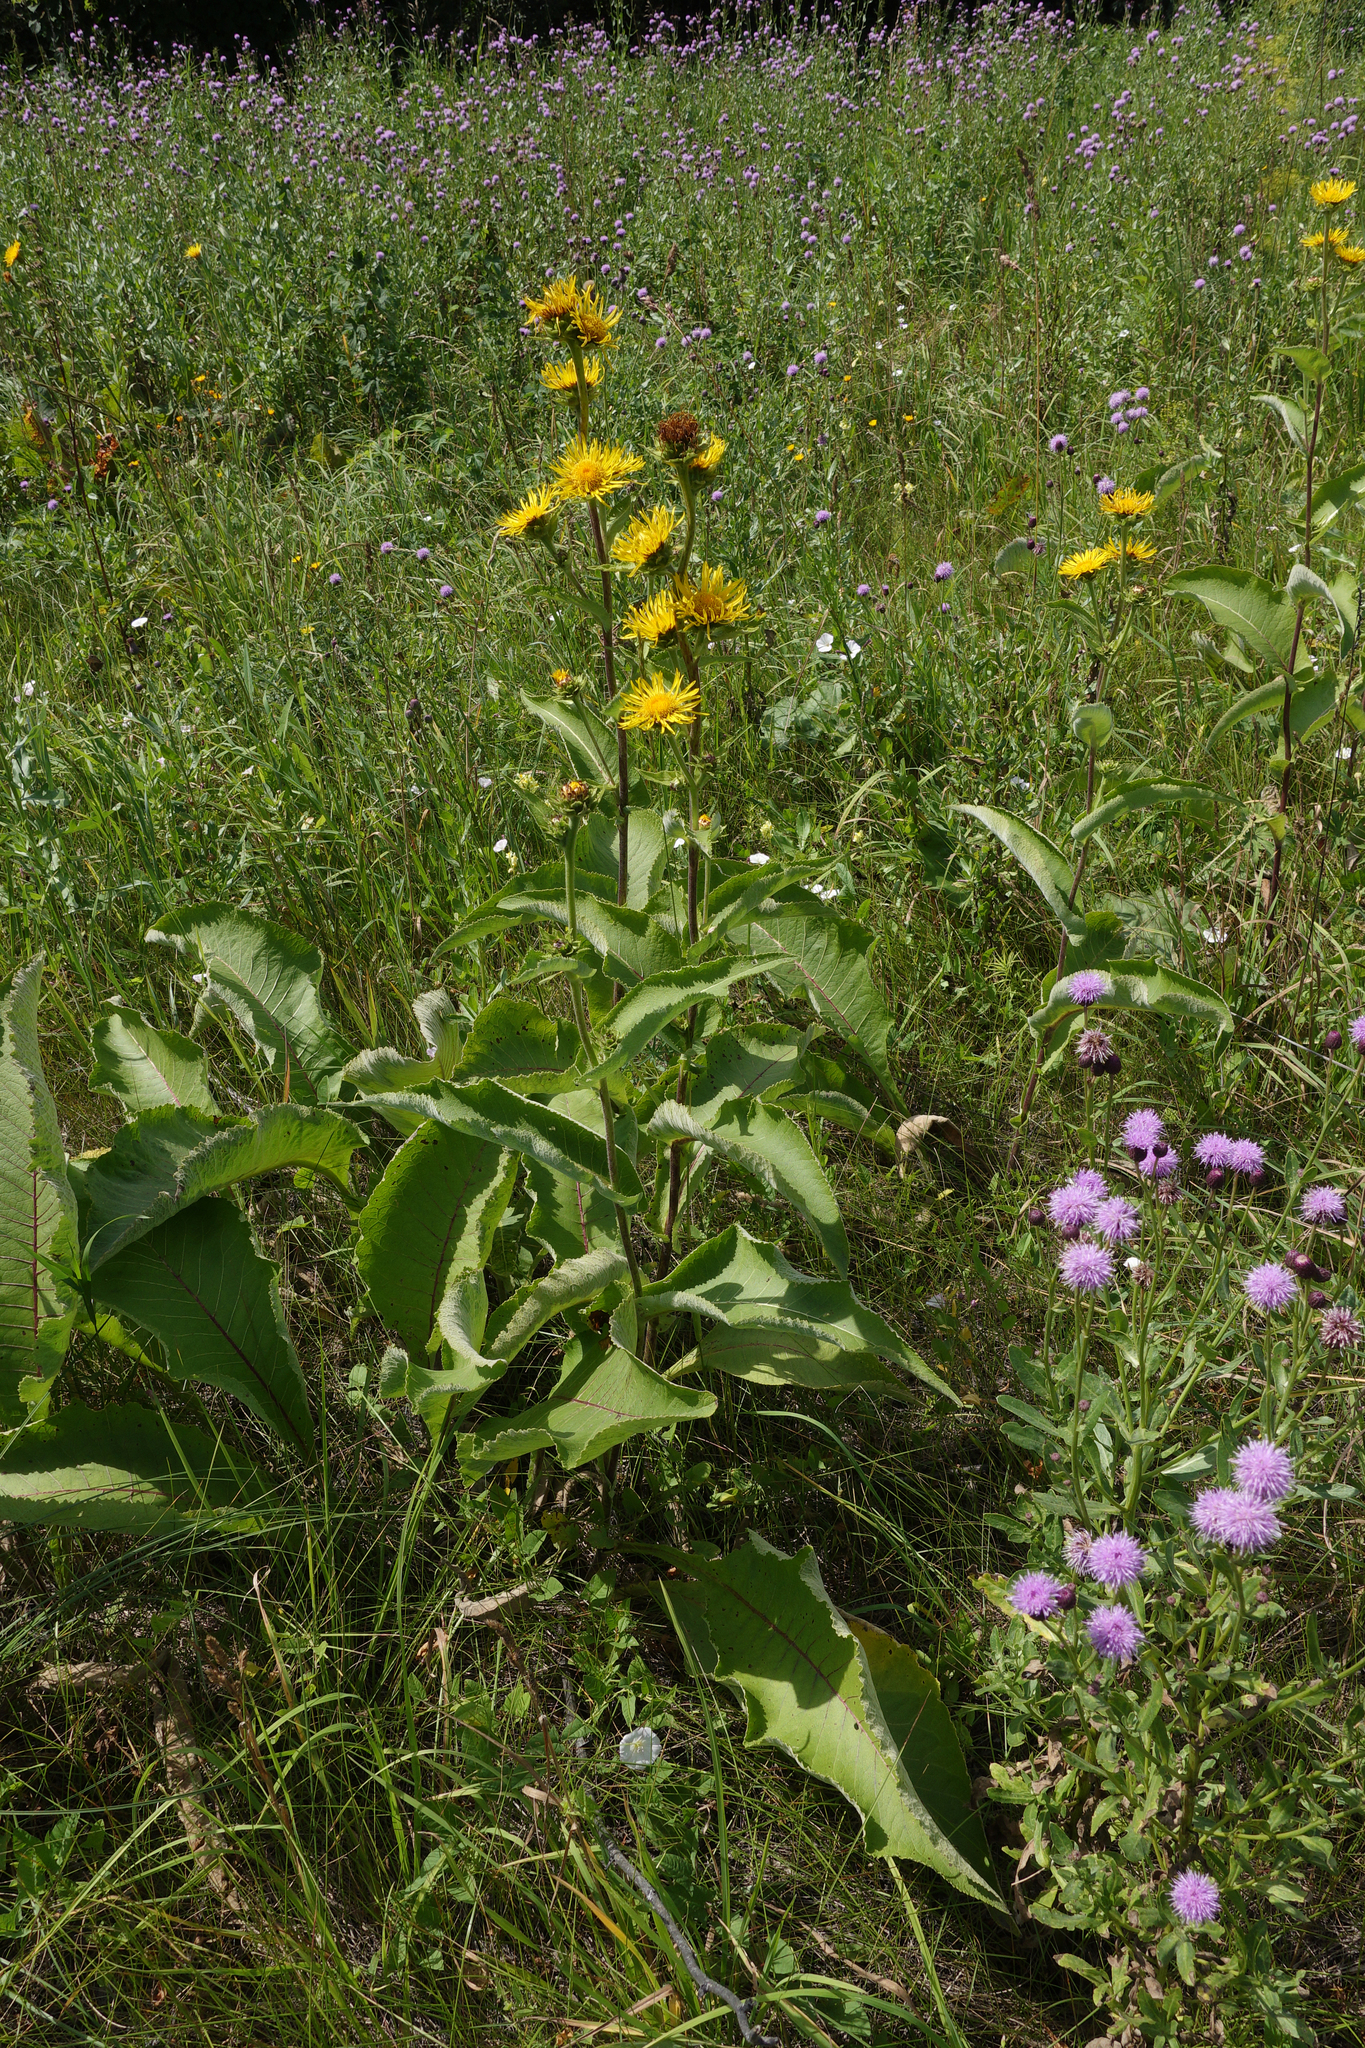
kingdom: Plantae
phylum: Tracheophyta
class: Magnoliopsida
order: Asterales
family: Asteraceae
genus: Inula
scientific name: Inula helenium
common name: Elecampane
